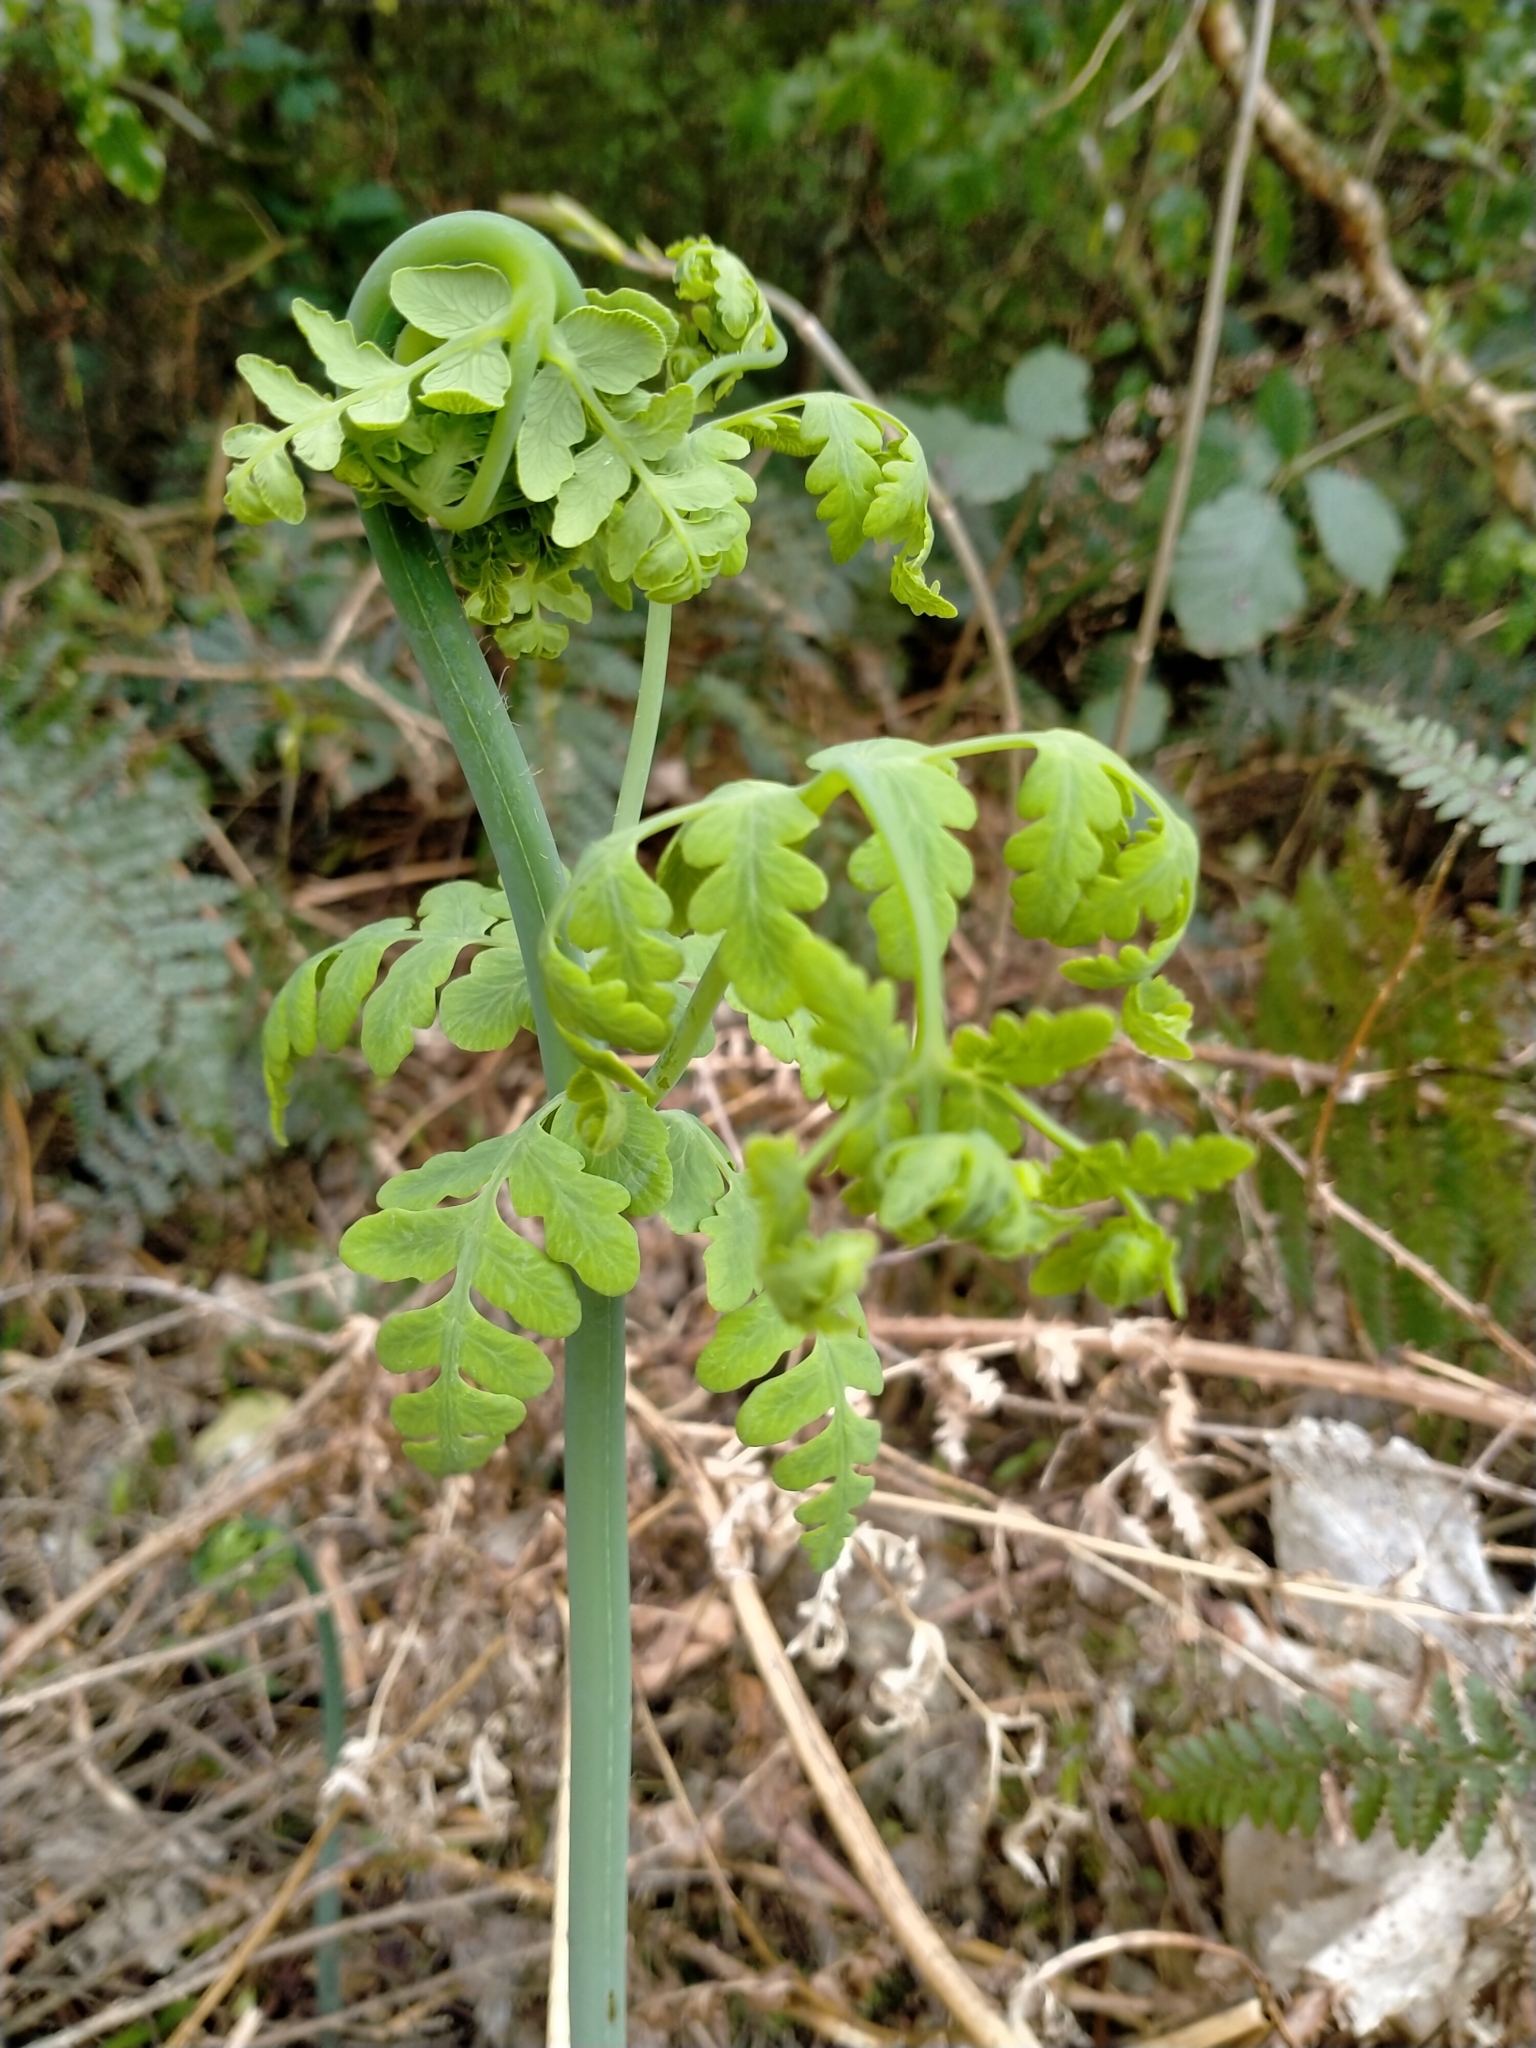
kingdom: Plantae
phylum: Tracheophyta
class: Polypodiopsida
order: Polypodiales
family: Dennstaedtiaceae
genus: Histiopteris
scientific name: Histiopteris incisa
